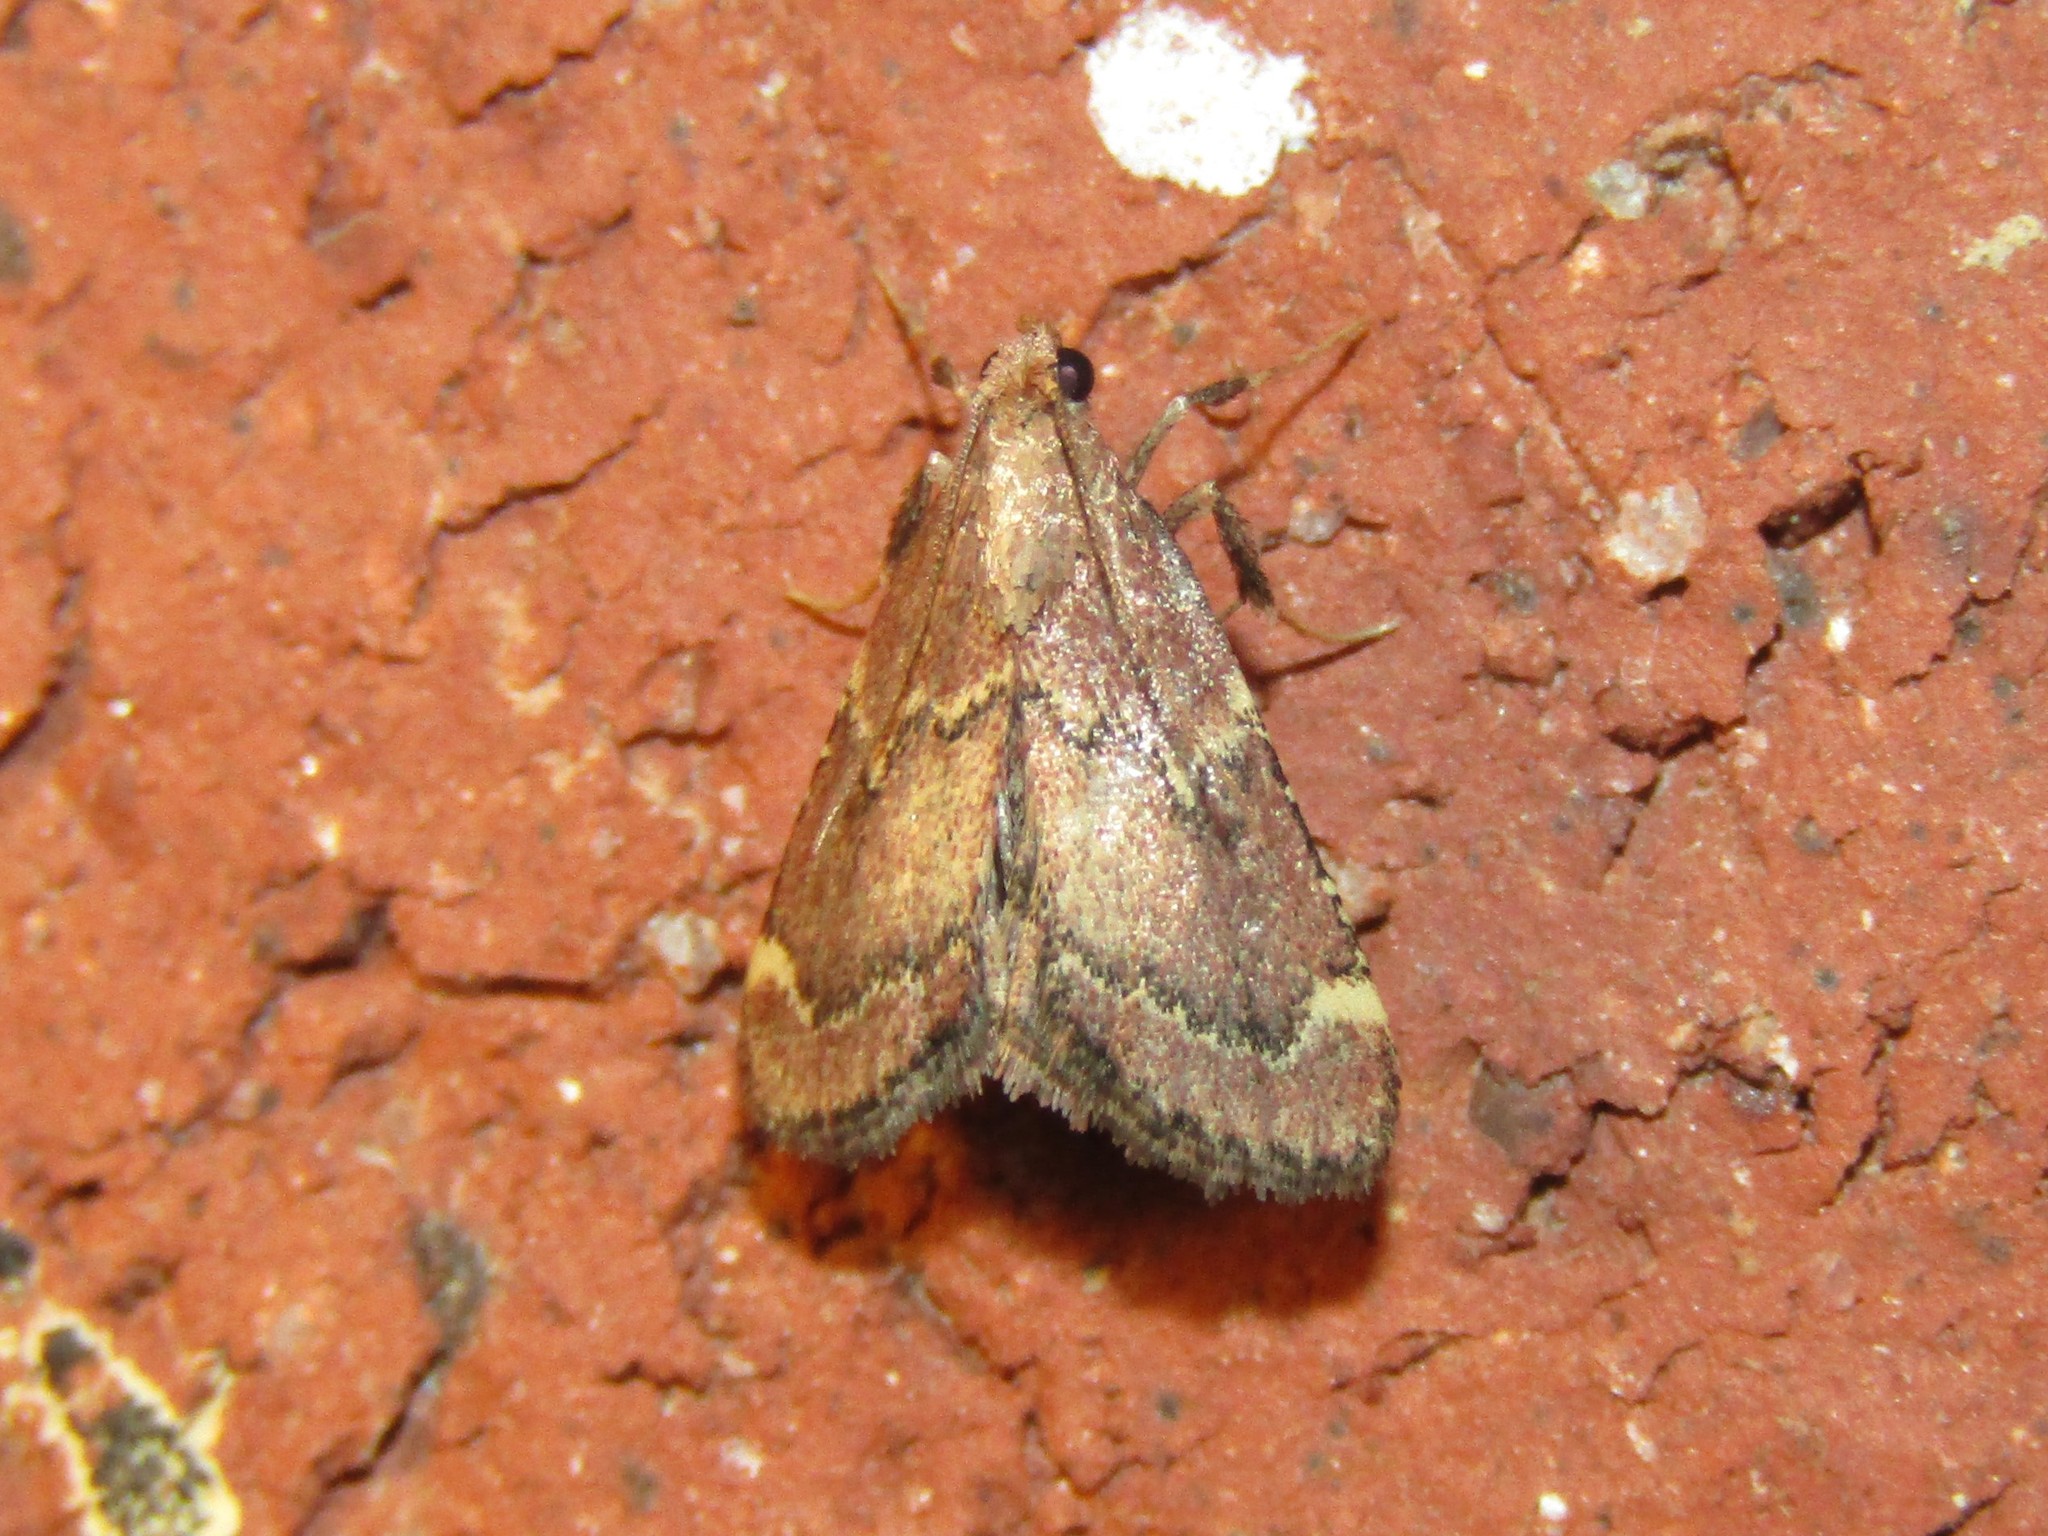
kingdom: Animalia
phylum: Arthropoda
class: Insecta
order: Lepidoptera
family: Pyralidae
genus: Hypsopygia
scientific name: Hypsopygia intermedialis
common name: Red-shawled moth
